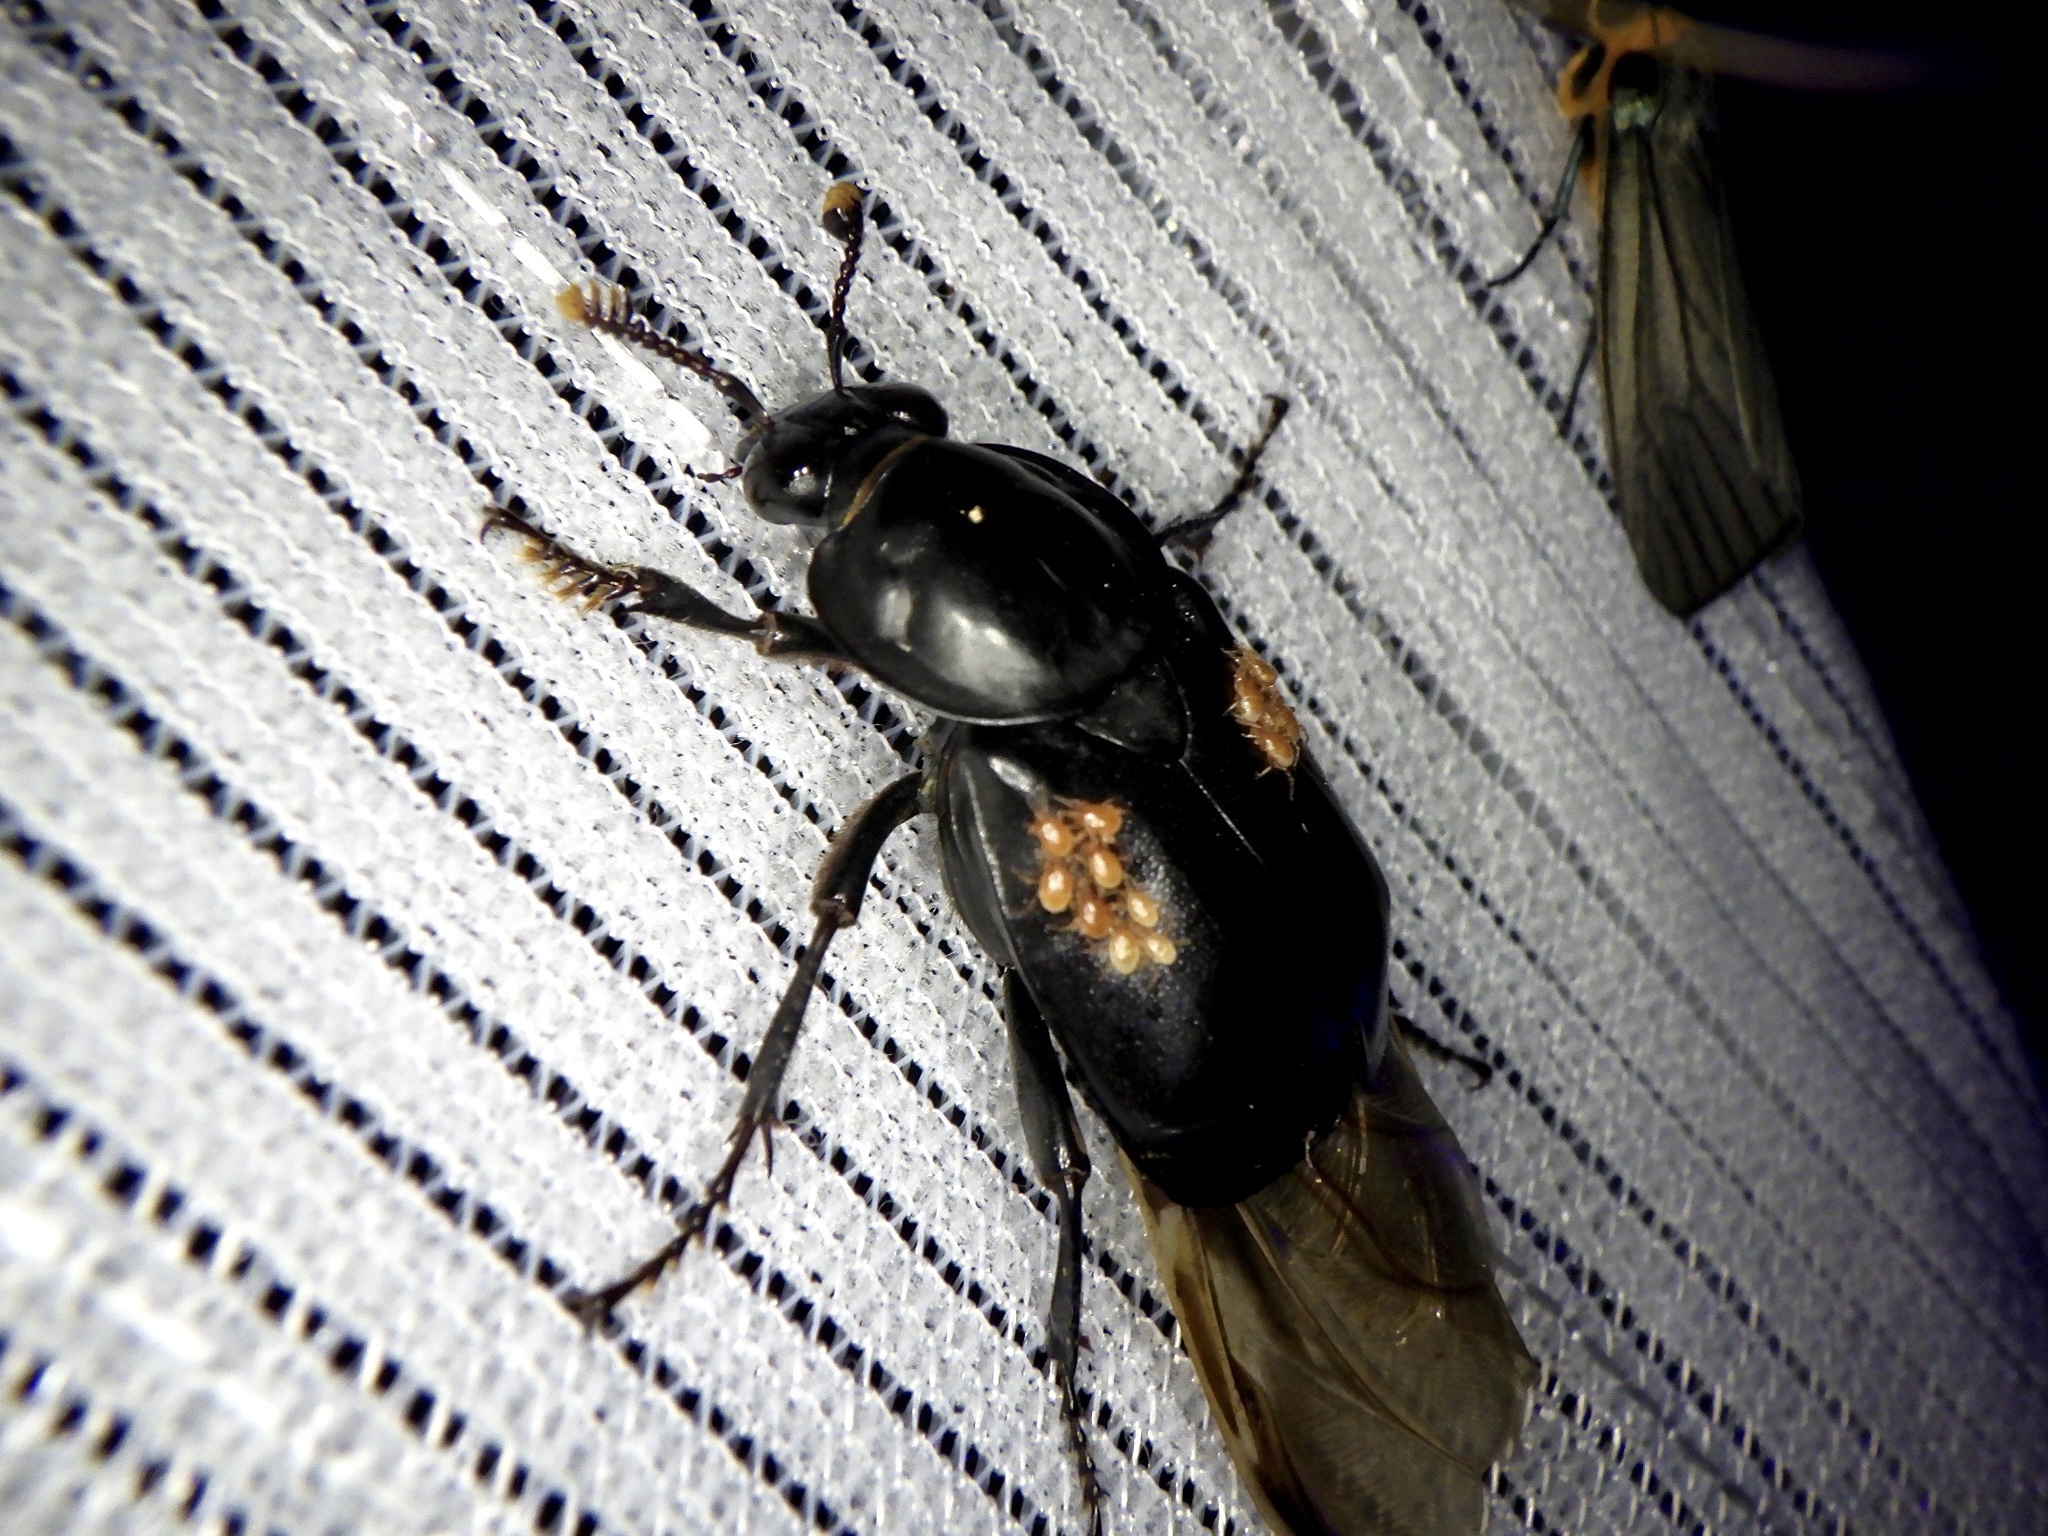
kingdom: Animalia
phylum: Arthropoda
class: Insecta
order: Coleoptera
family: Staphylinidae
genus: Nicrophorus
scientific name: Nicrophorus concolor
